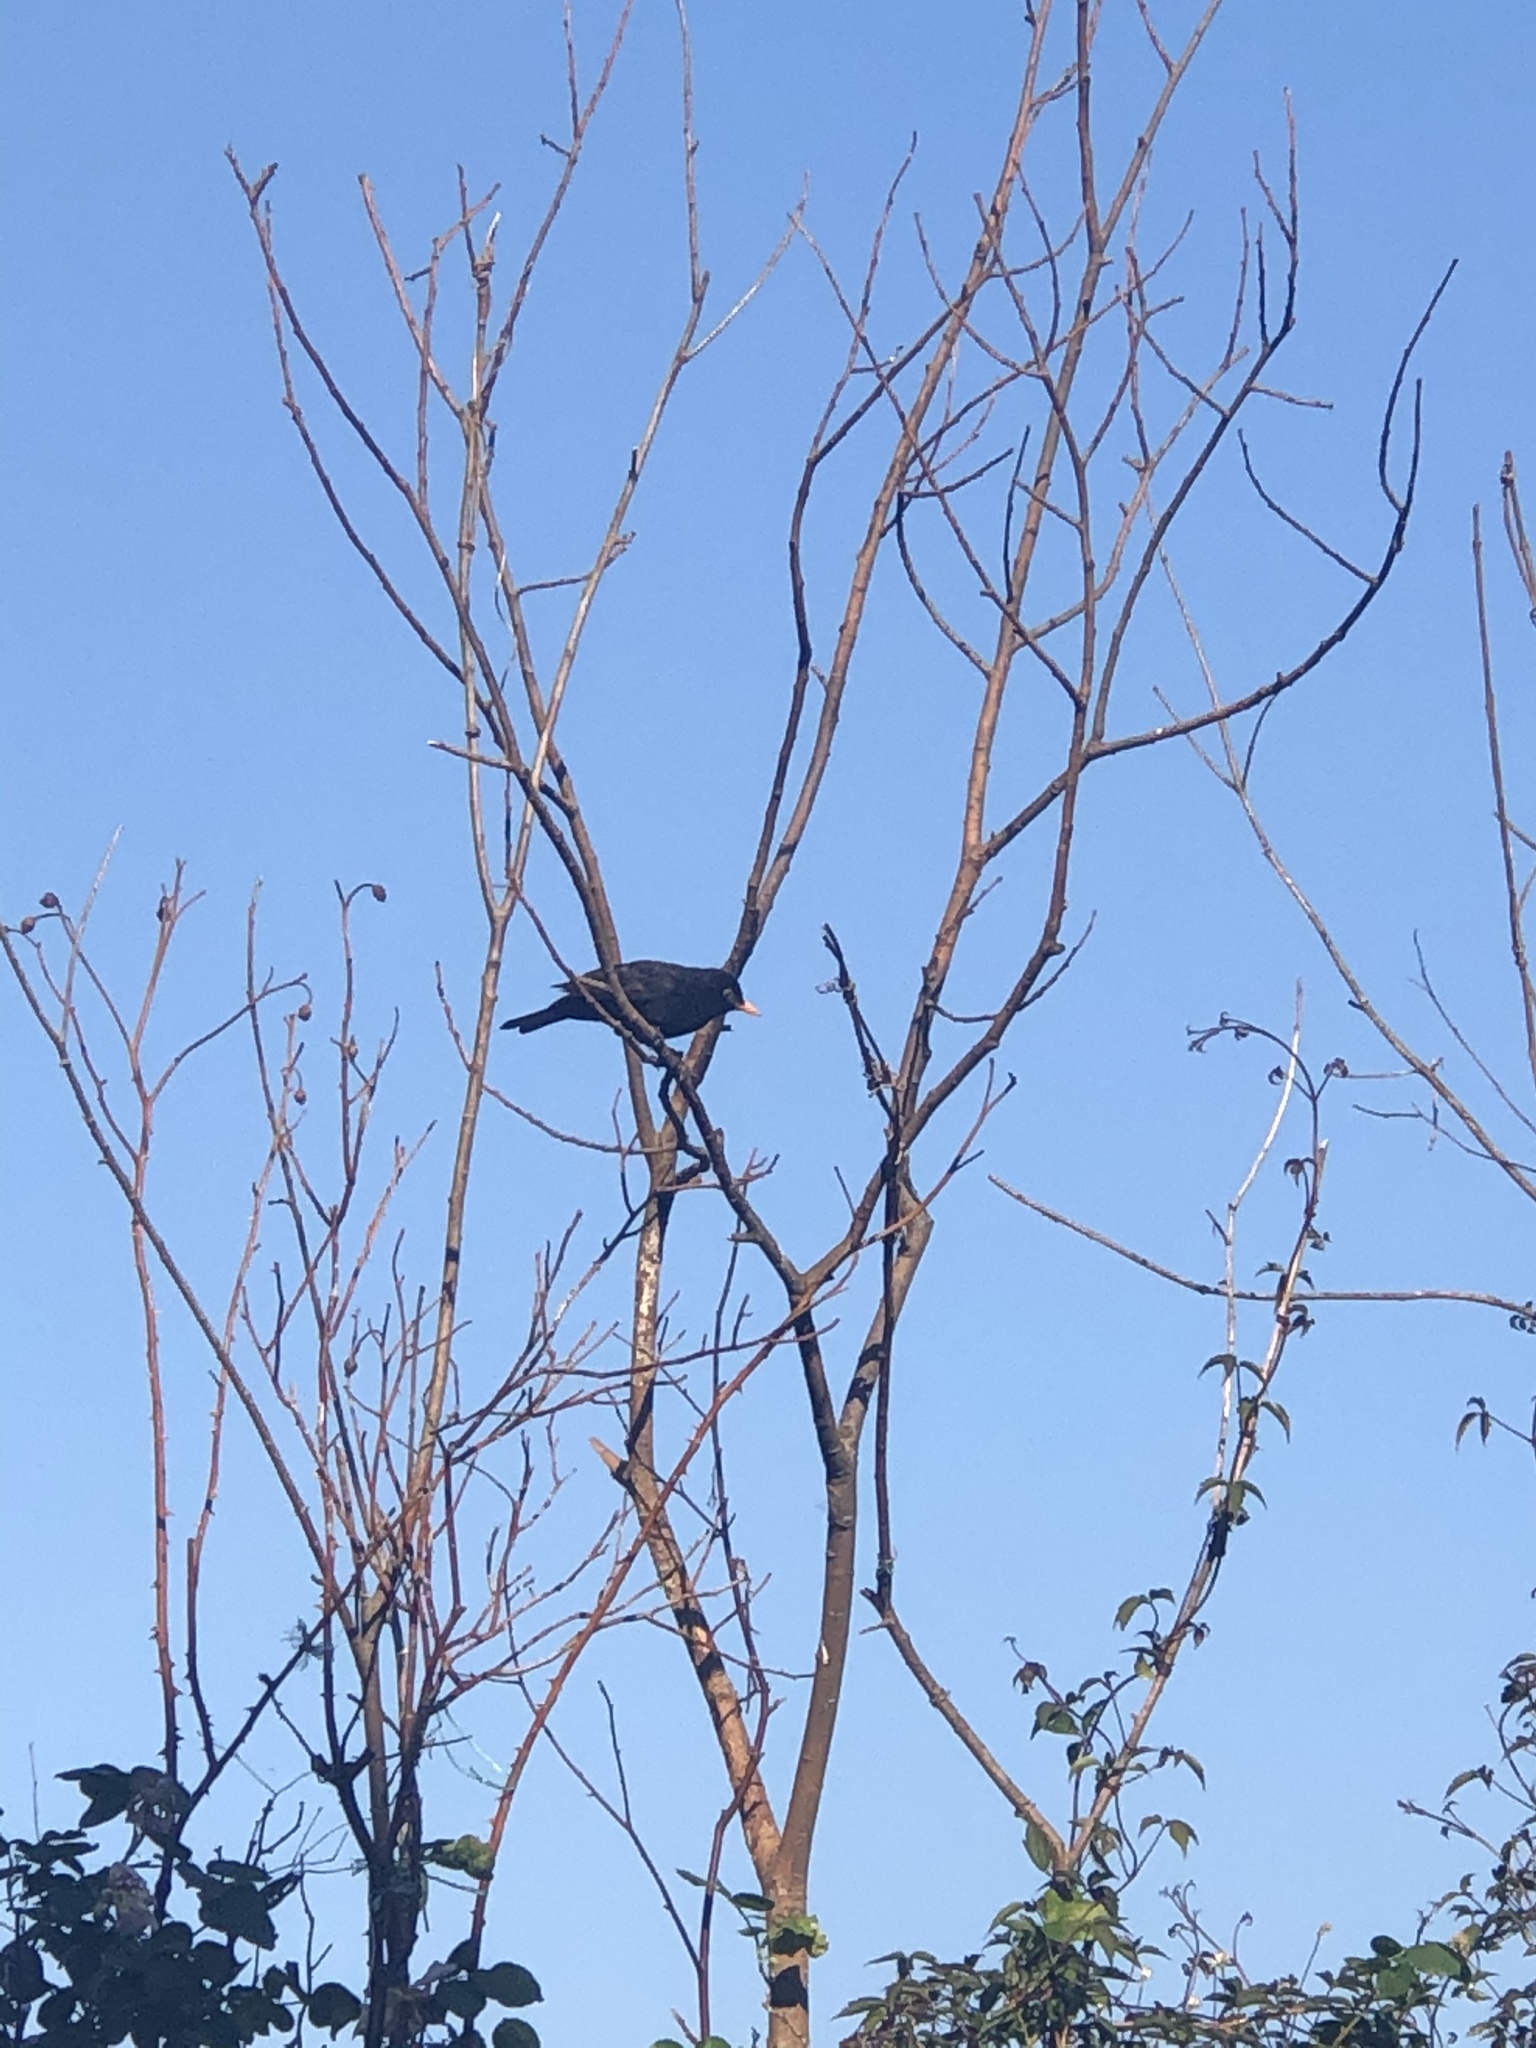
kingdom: Animalia
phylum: Chordata
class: Aves
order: Passeriformes
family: Turdidae
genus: Turdus
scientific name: Turdus merula
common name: Common blackbird
